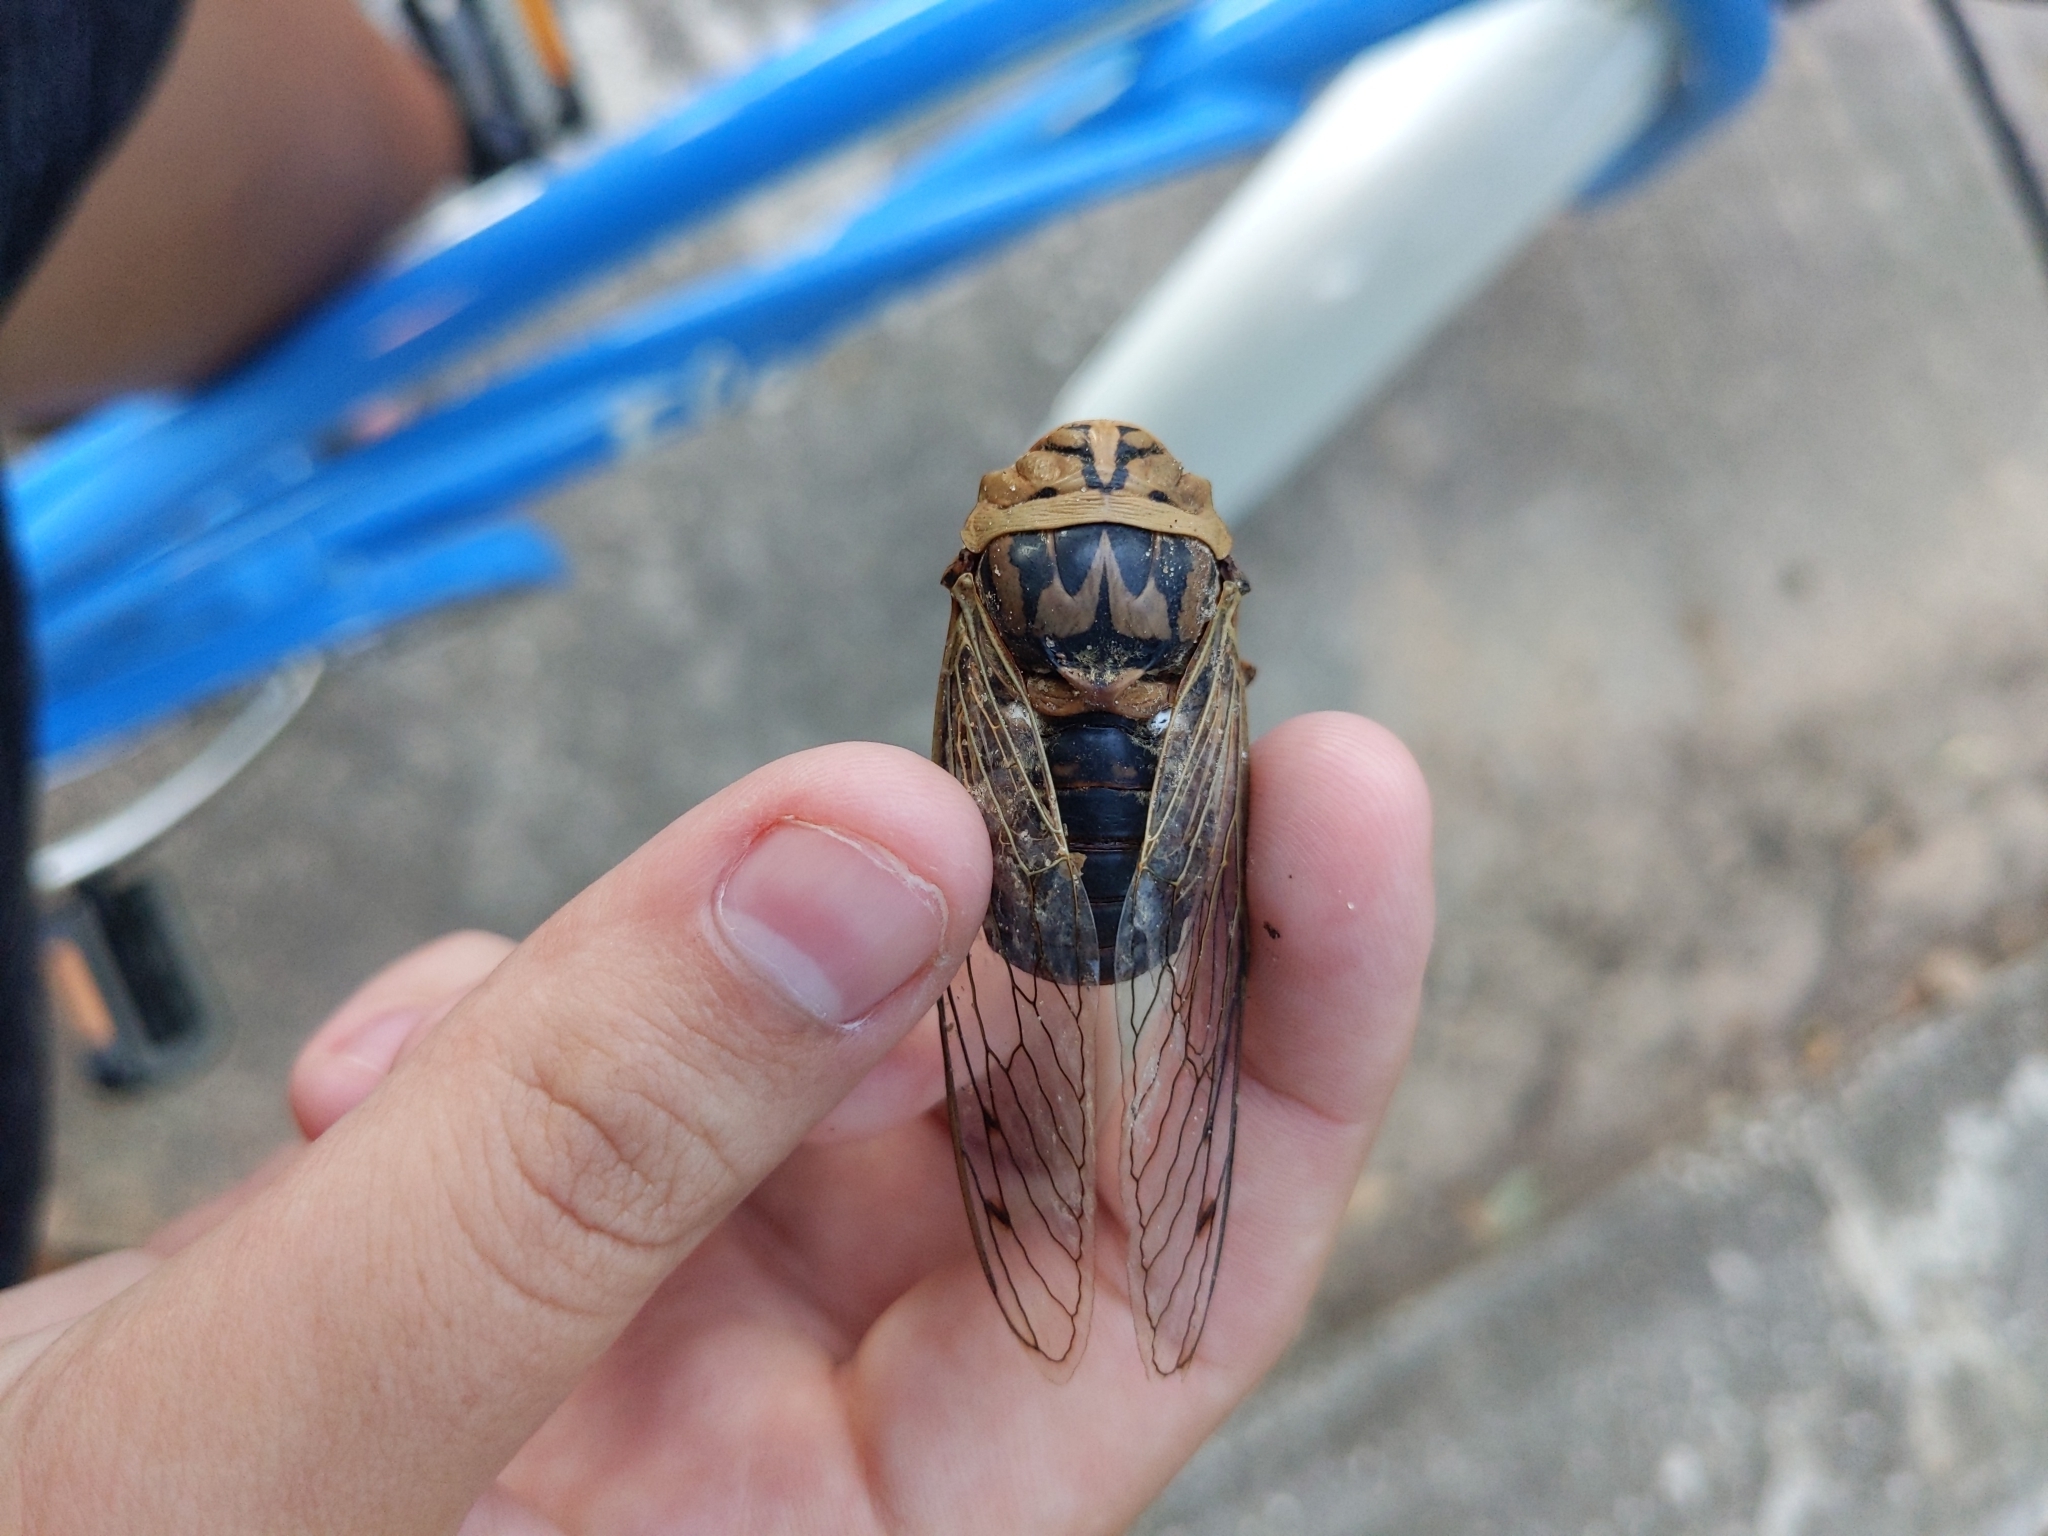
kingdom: Animalia
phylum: Arthropoda
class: Insecta
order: Hemiptera
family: Cicadidae
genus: Megatibicen
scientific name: Megatibicen resh
